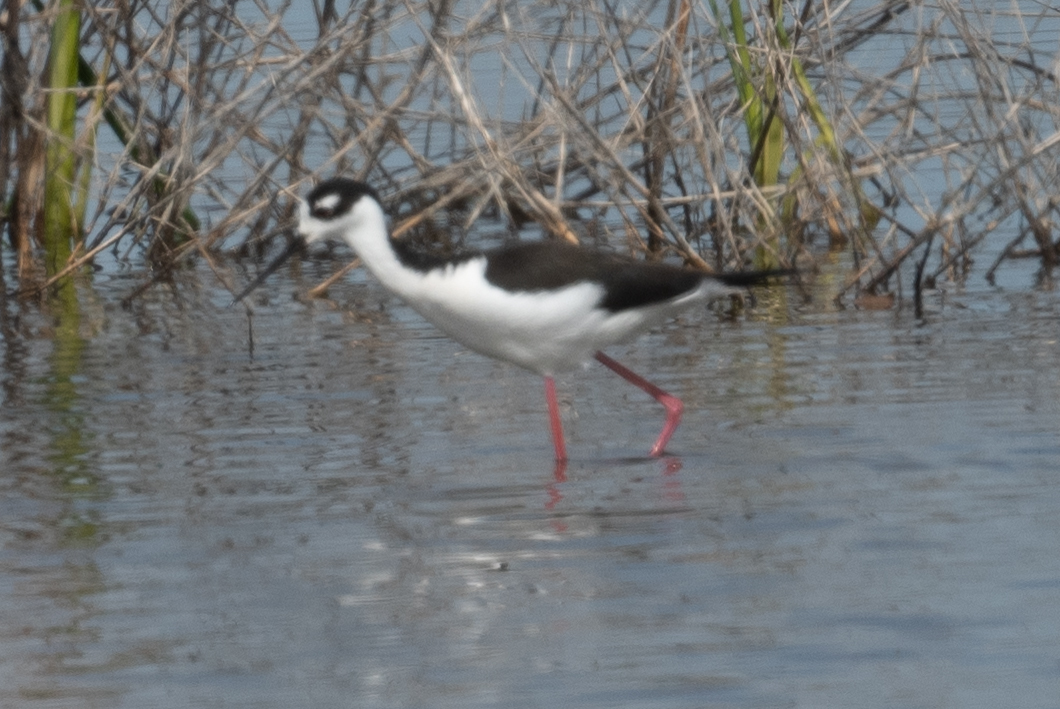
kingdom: Animalia
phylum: Chordata
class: Aves
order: Charadriiformes
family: Recurvirostridae
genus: Himantopus
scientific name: Himantopus mexicanus
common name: Black-necked stilt
